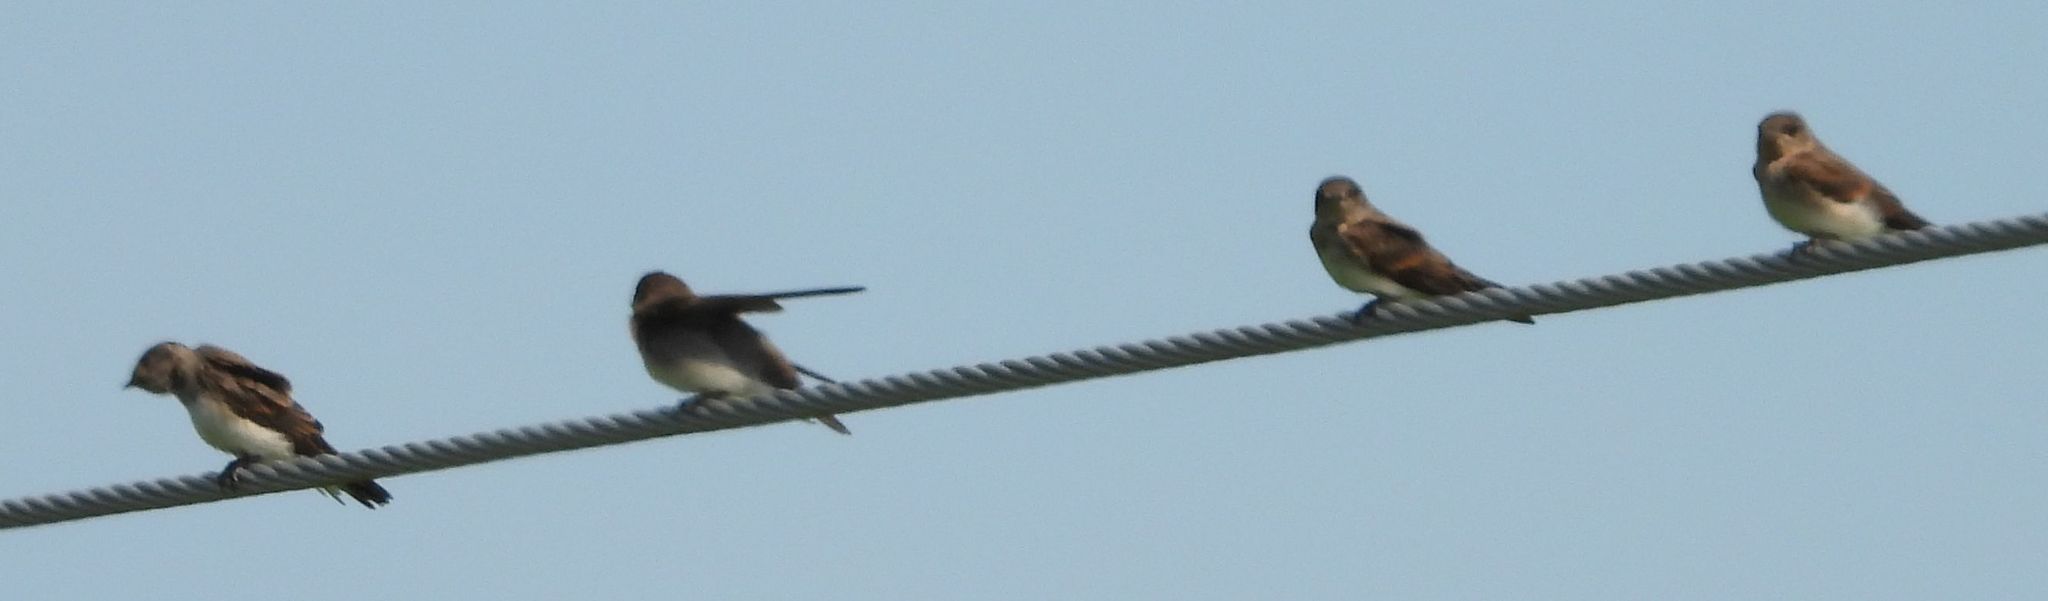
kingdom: Animalia
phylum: Chordata
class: Aves
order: Passeriformes
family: Hirundinidae
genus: Stelgidopteryx
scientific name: Stelgidopteryx serripennis
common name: Northern rough-winged swallow
